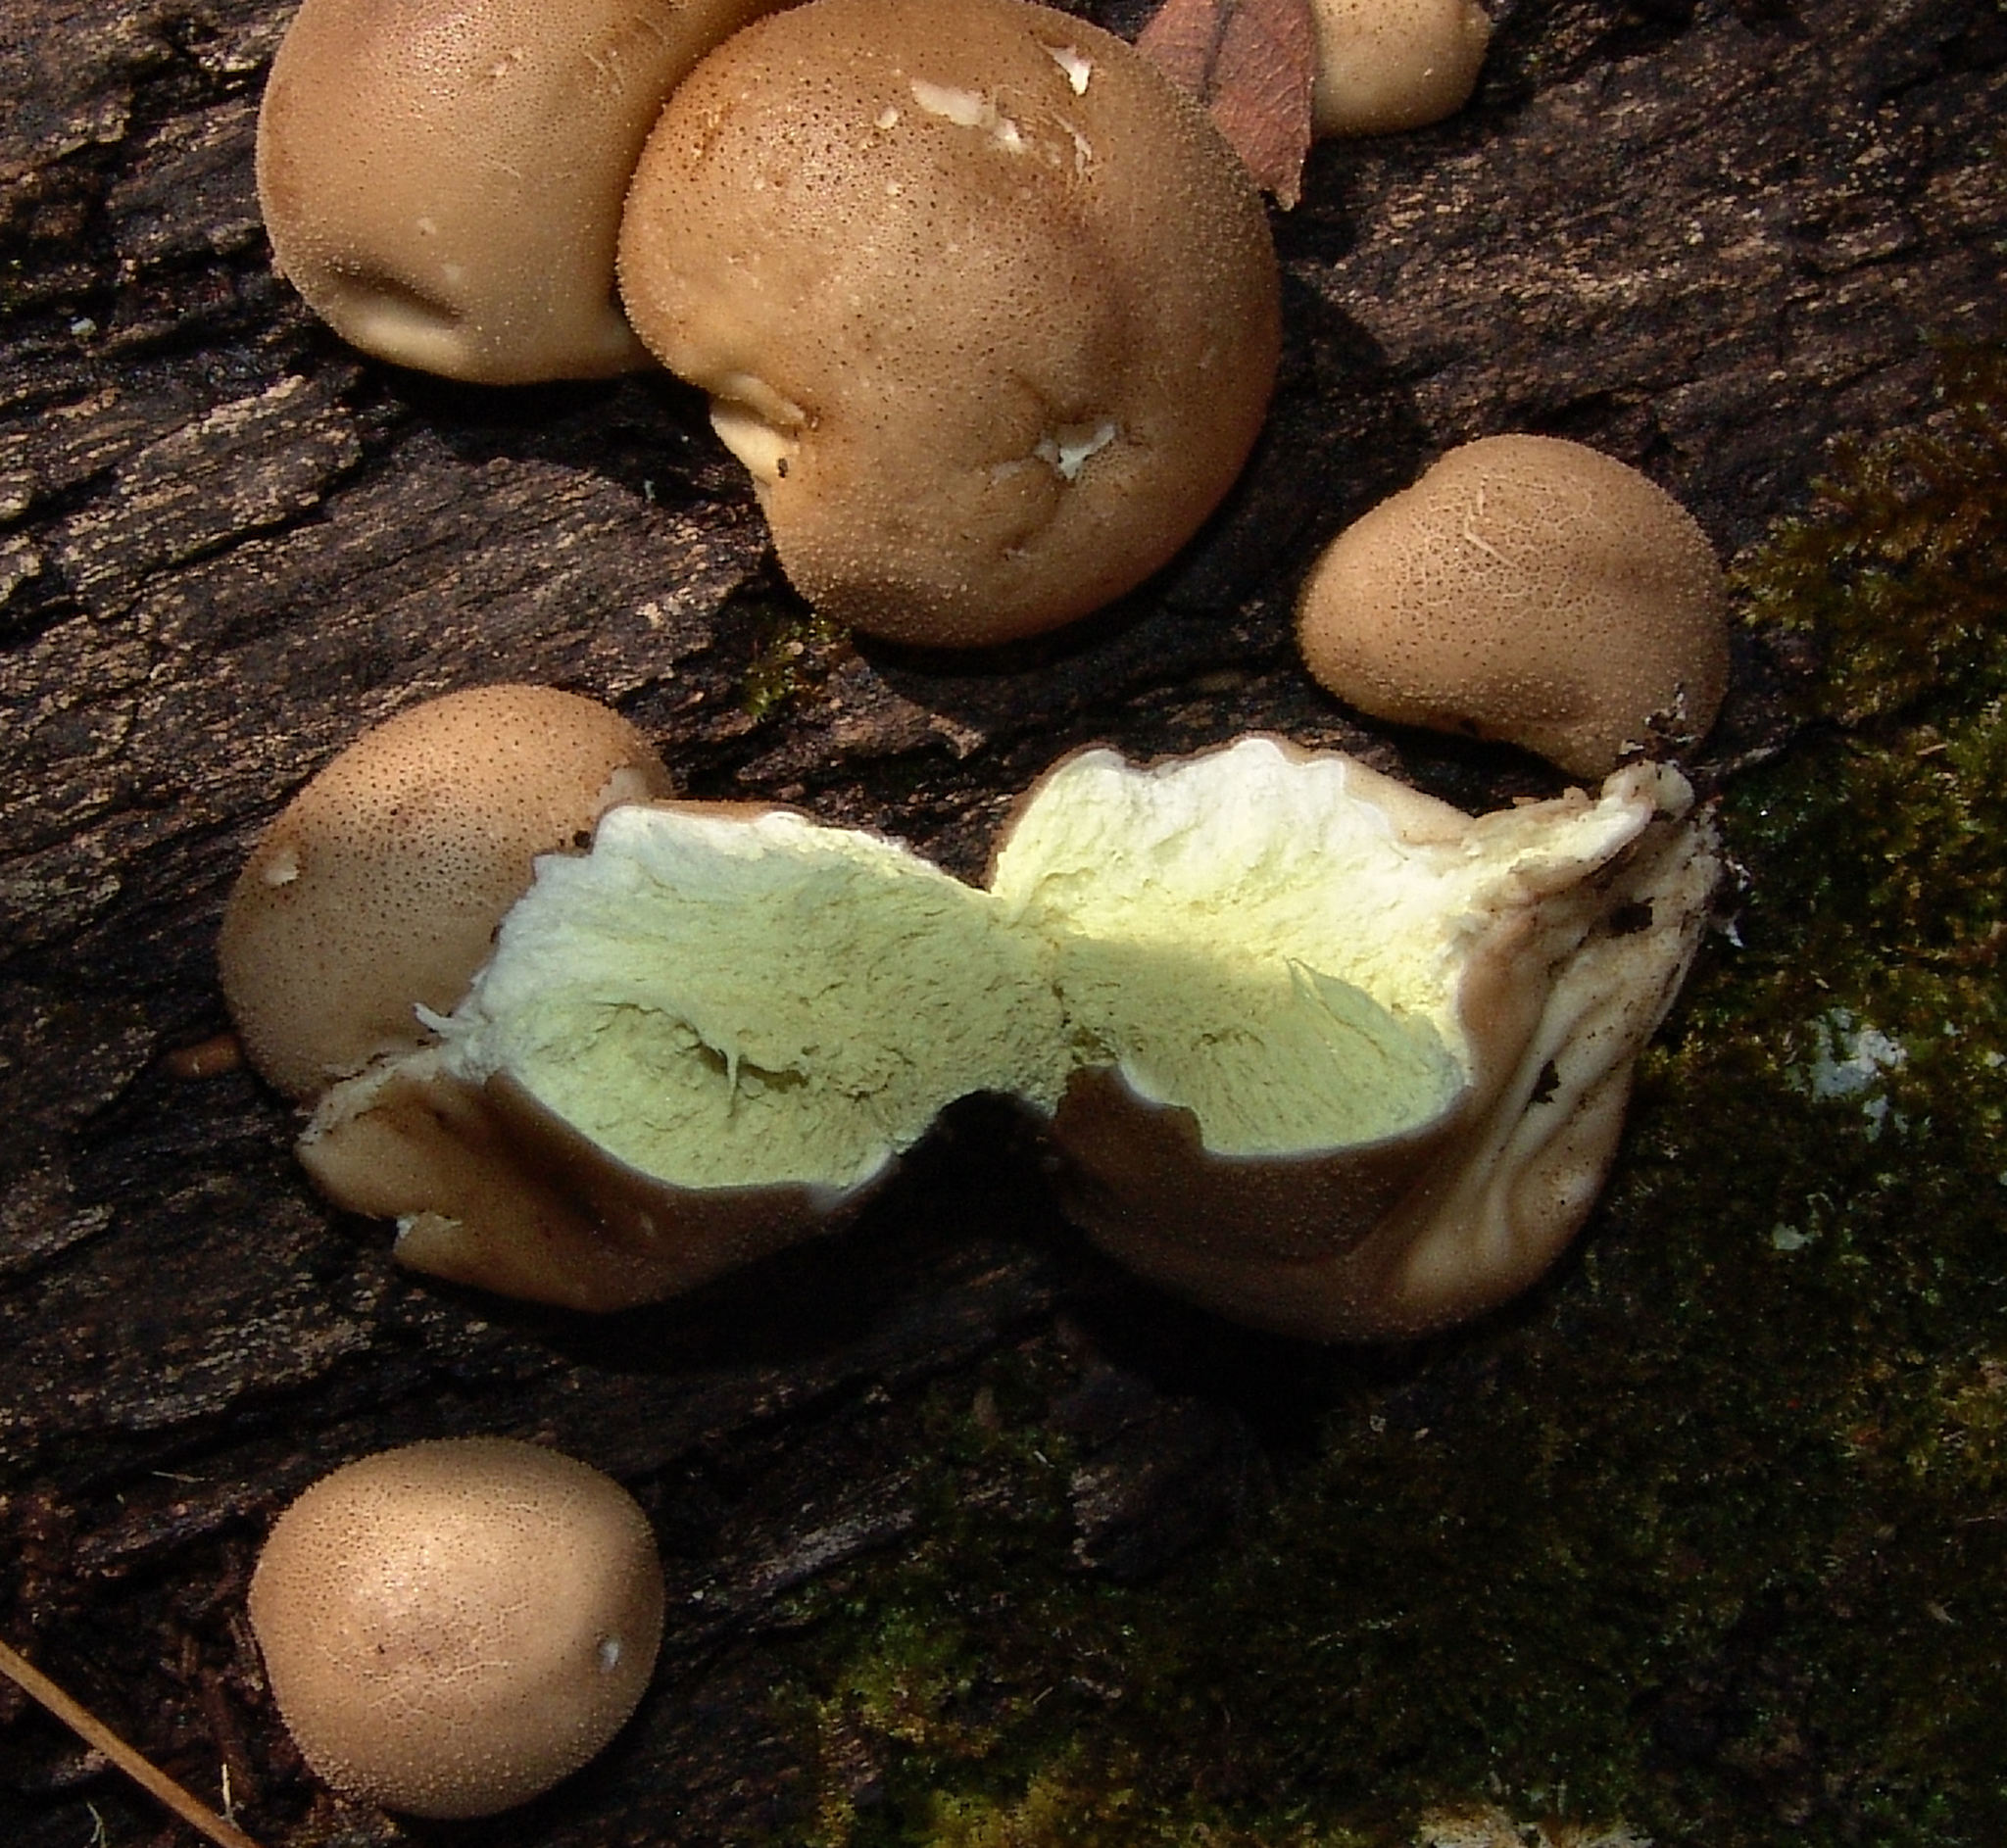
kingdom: Fungi
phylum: Basidiomycota
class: Agaricomycetes
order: Agaricales
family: Lycoperdaceae
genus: Apioperdon
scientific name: Apioperdon pyriforme
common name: Pear-shaped puffball
